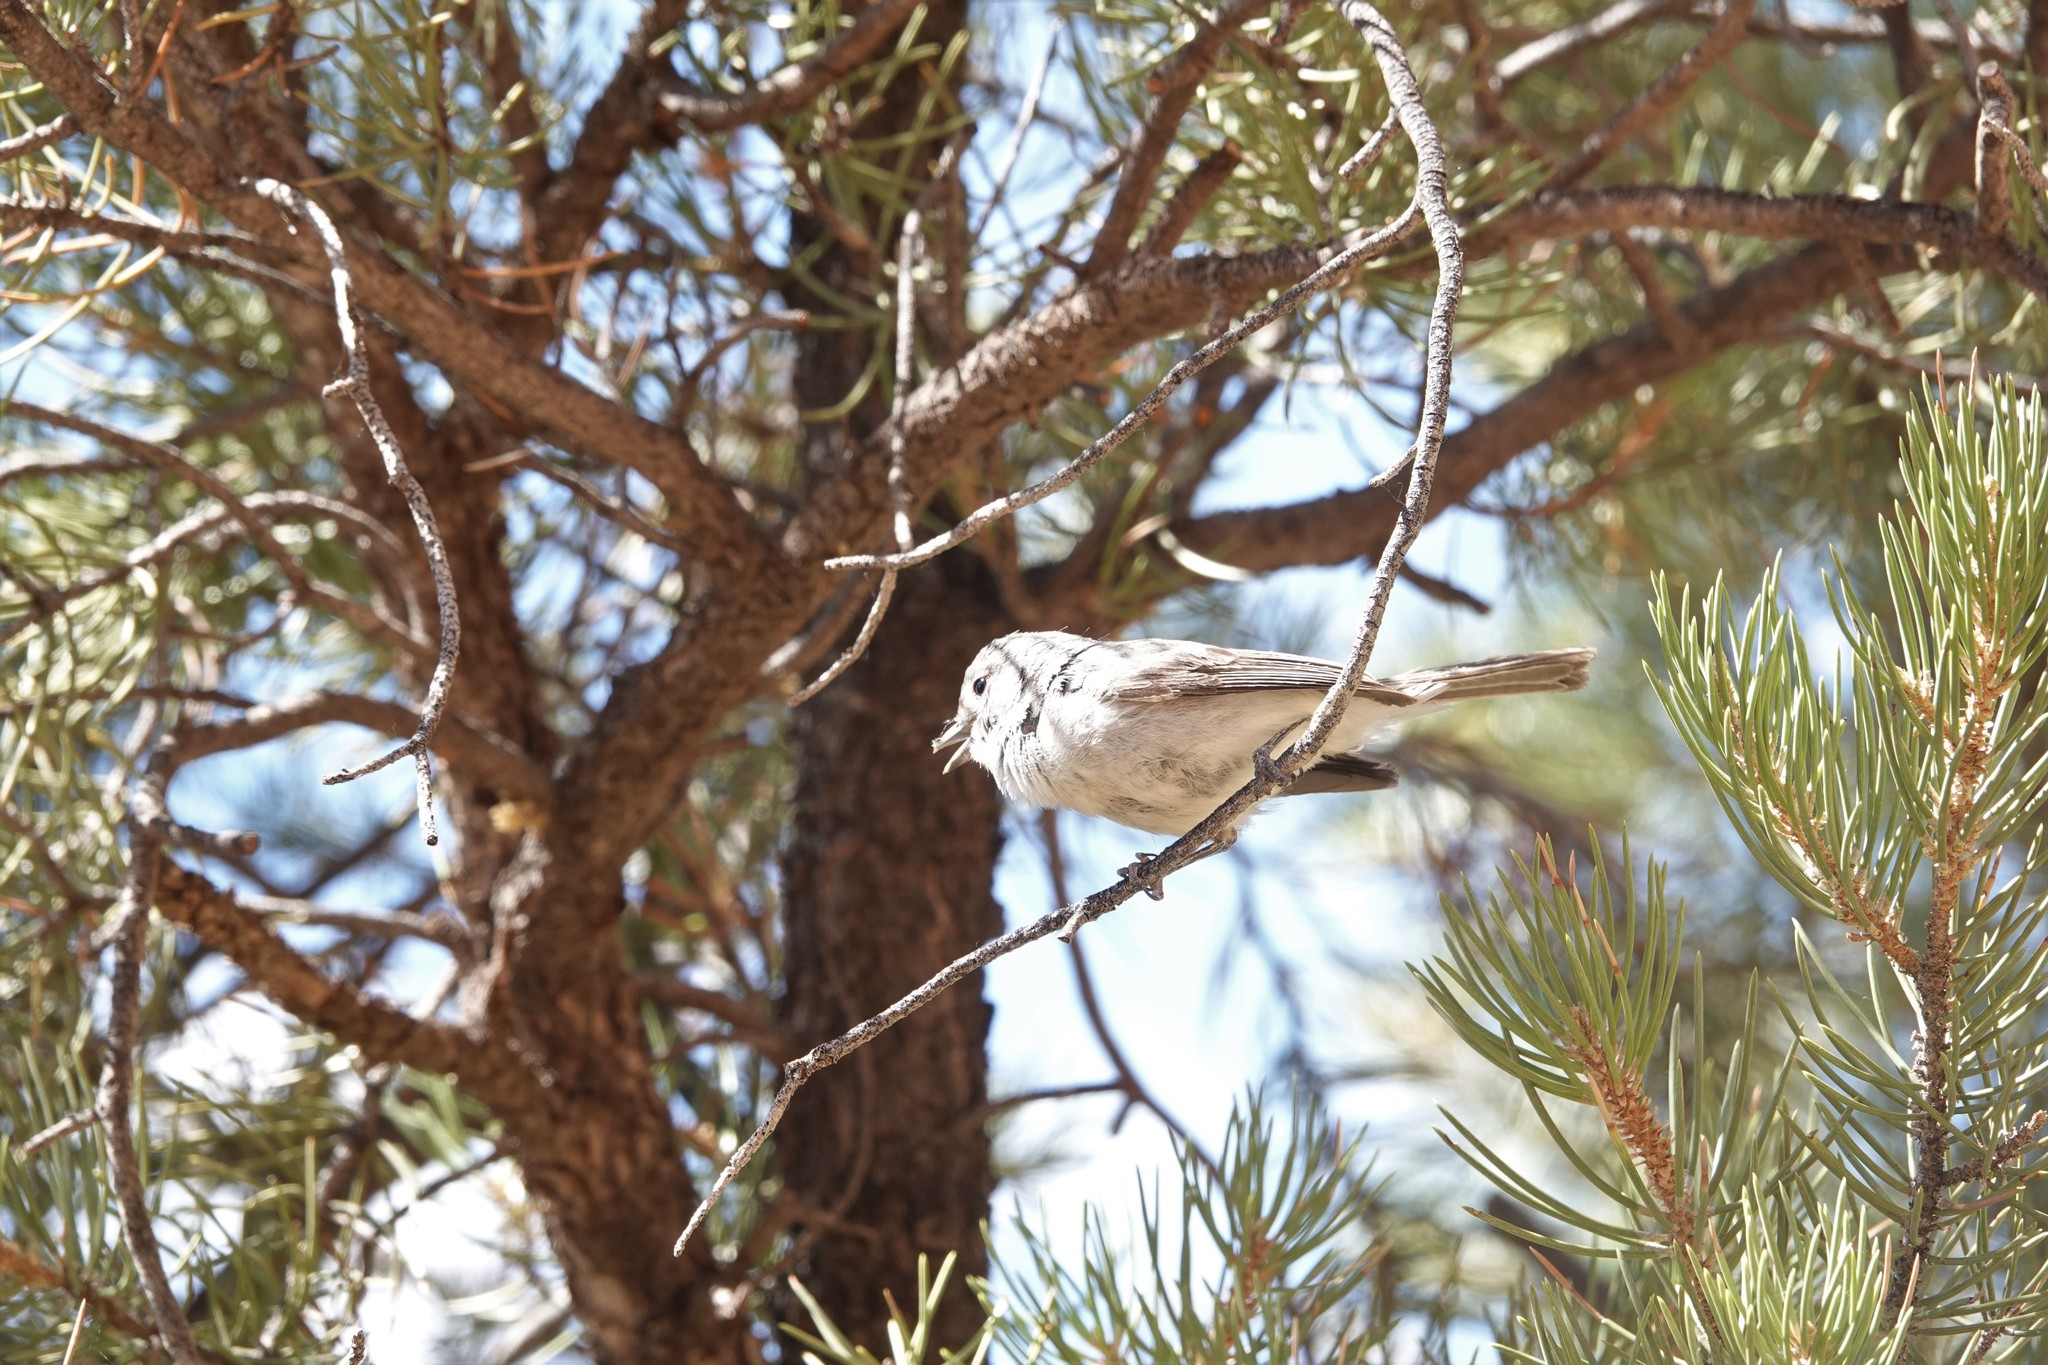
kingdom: Animalia
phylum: Chordata
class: Aves
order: Passeriformes
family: Vireonidae
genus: Vireo
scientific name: Vireo vicinior
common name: Gray vireo
